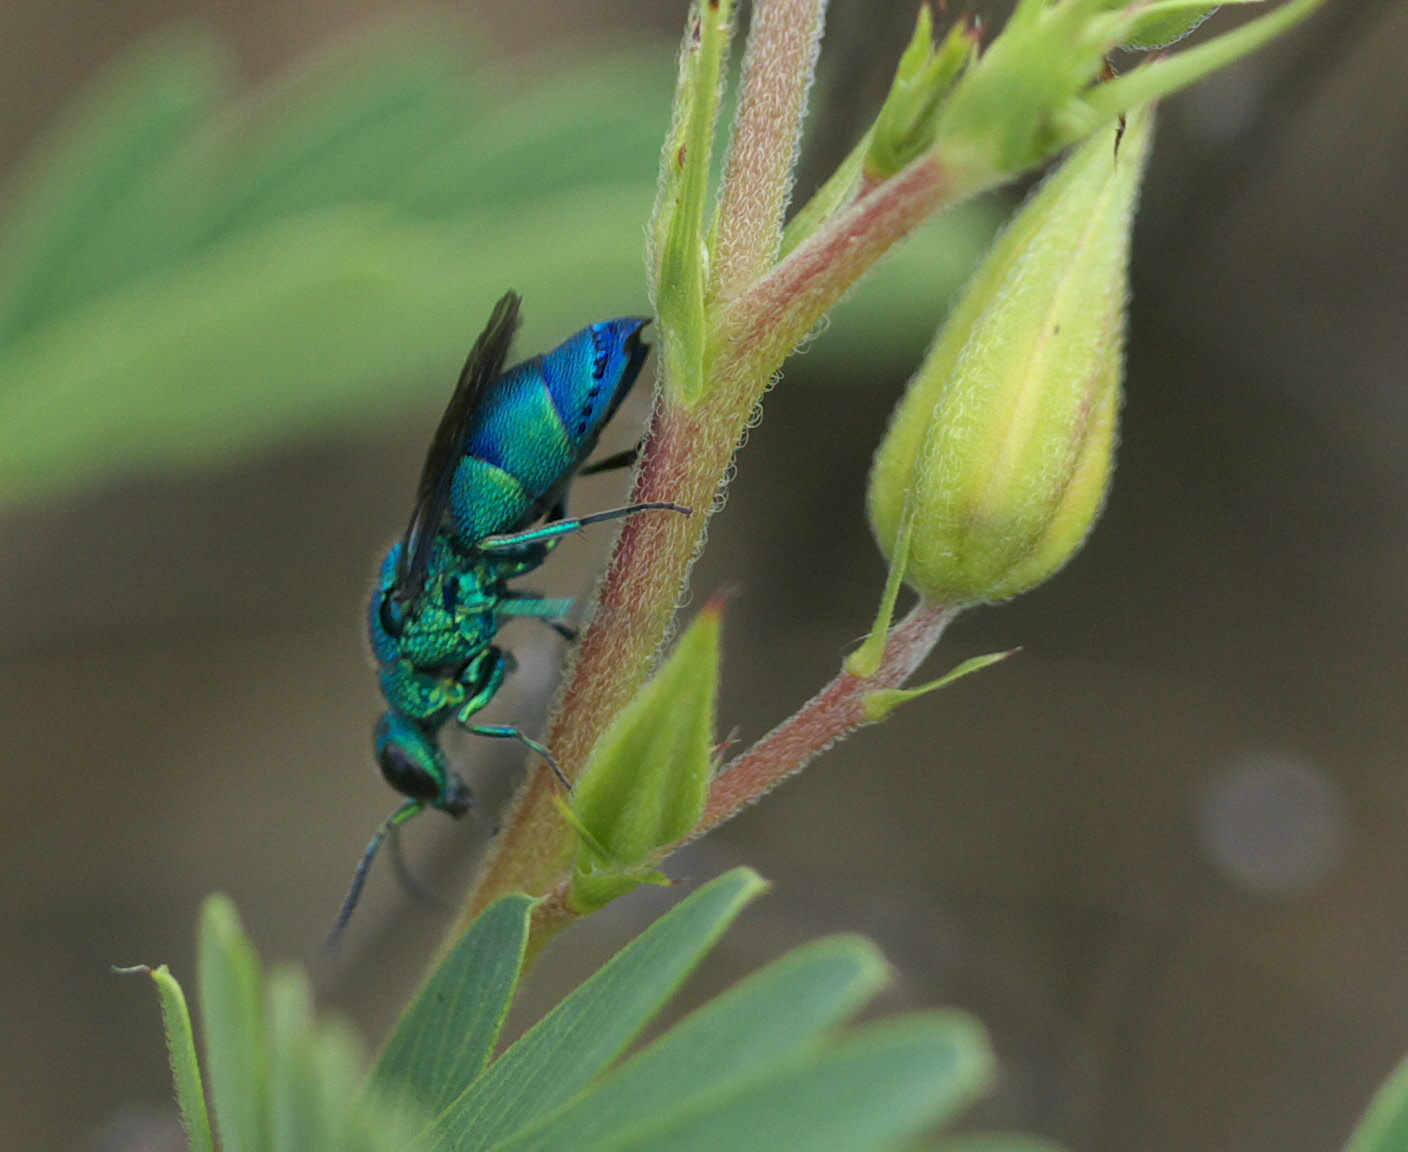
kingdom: Animalia
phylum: Arthropoda
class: Insecta
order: Hymenoptera
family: Chrysididae
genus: Chrysis
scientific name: Chrysis conica
